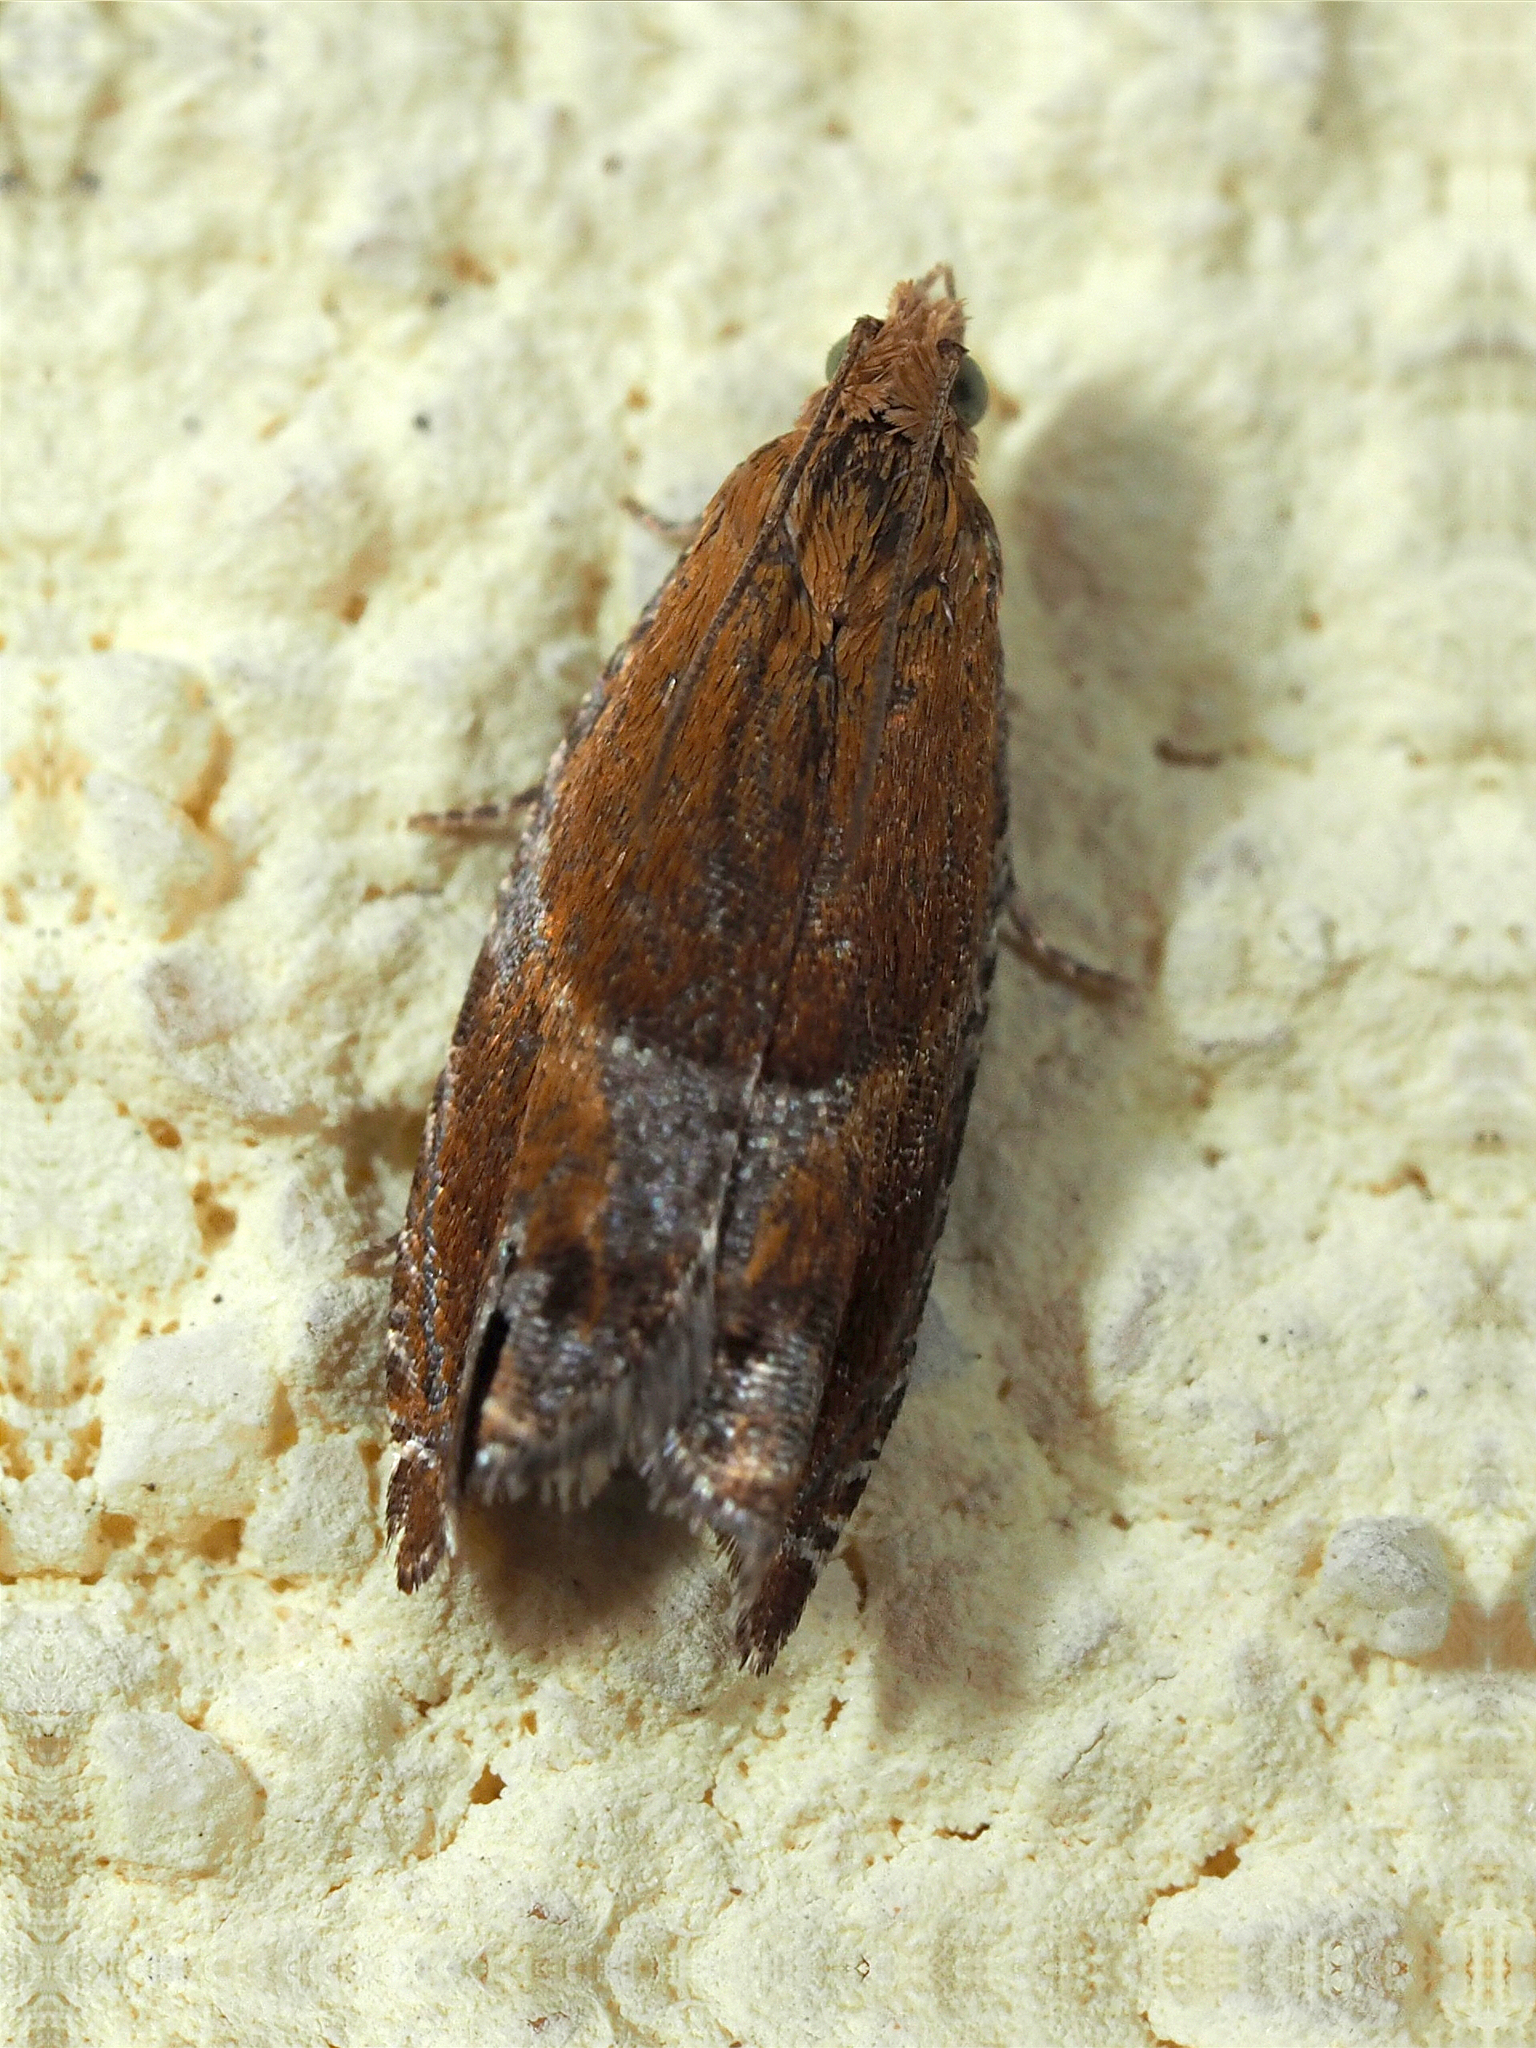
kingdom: Animalia
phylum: Arthropoda
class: Insecta
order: Lepidoptera
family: Tortricidae
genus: Ancylis
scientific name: Ancylis obtusana
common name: Small buckthorn roller
